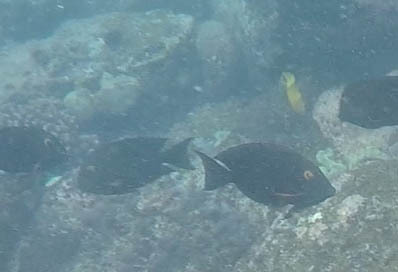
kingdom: Animalia
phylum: Chordata
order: Perciformes
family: Acanthuridae
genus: Ctenochaetus
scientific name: Ctenochaetus strigosus
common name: Bristletoothed surgeonfish
